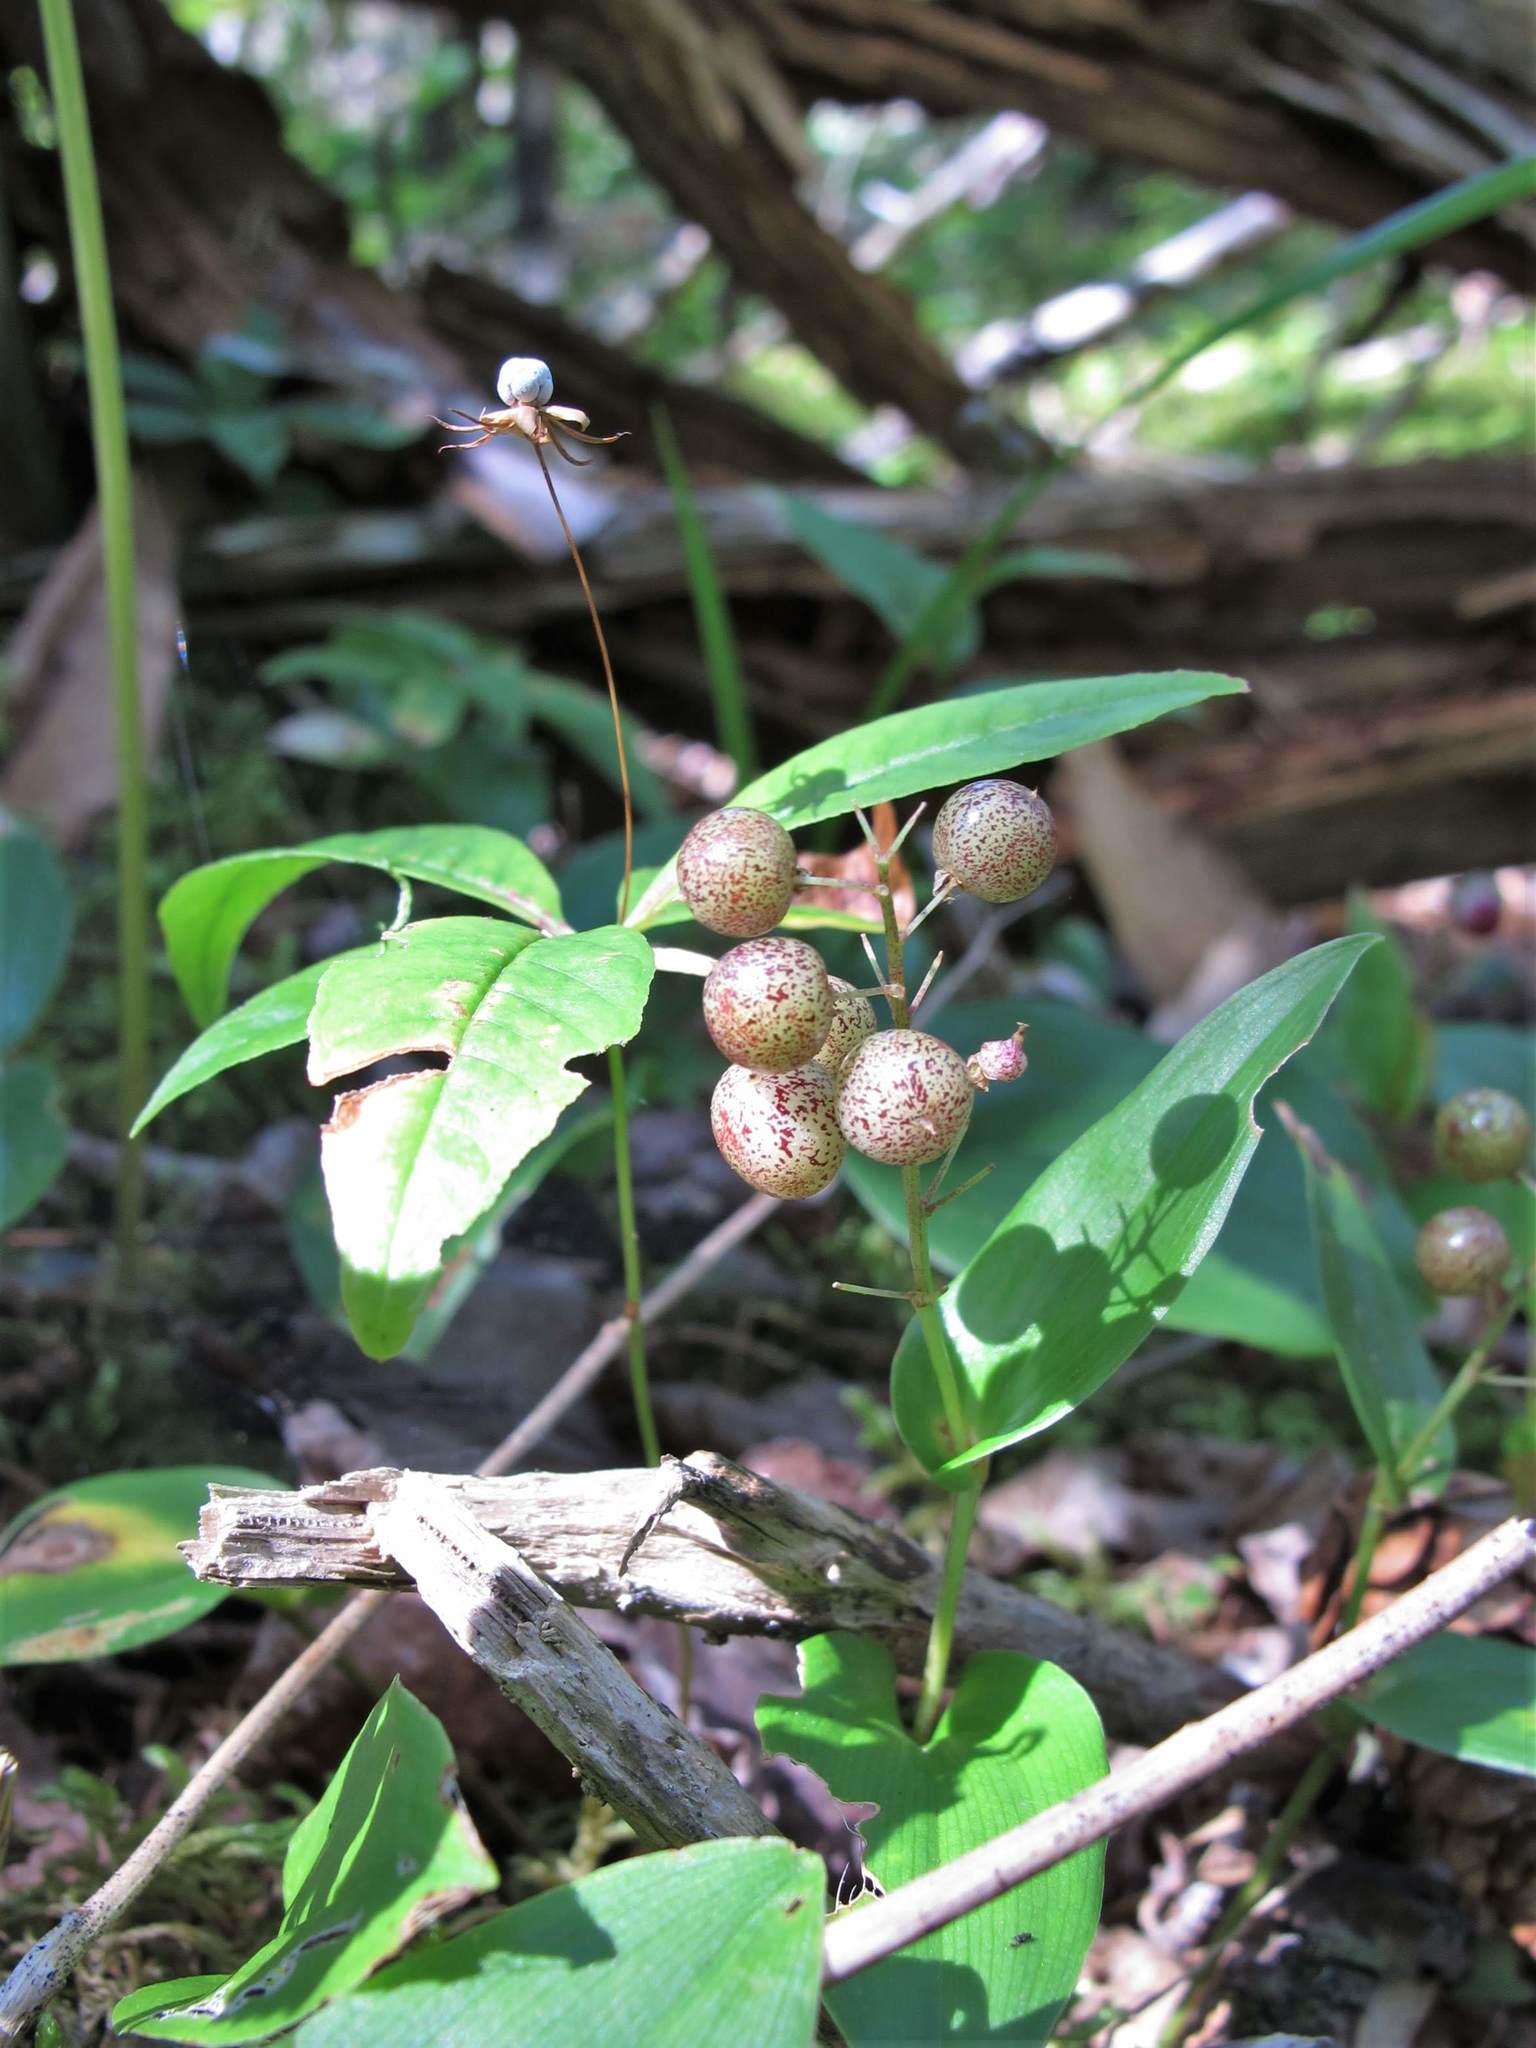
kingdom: Plantae
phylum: Tracheophyta
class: Liliopsida
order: Asparagales
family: Asparagaceae
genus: Maianthemum
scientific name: Maianthemum canadense
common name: False lily-of-the-valley
